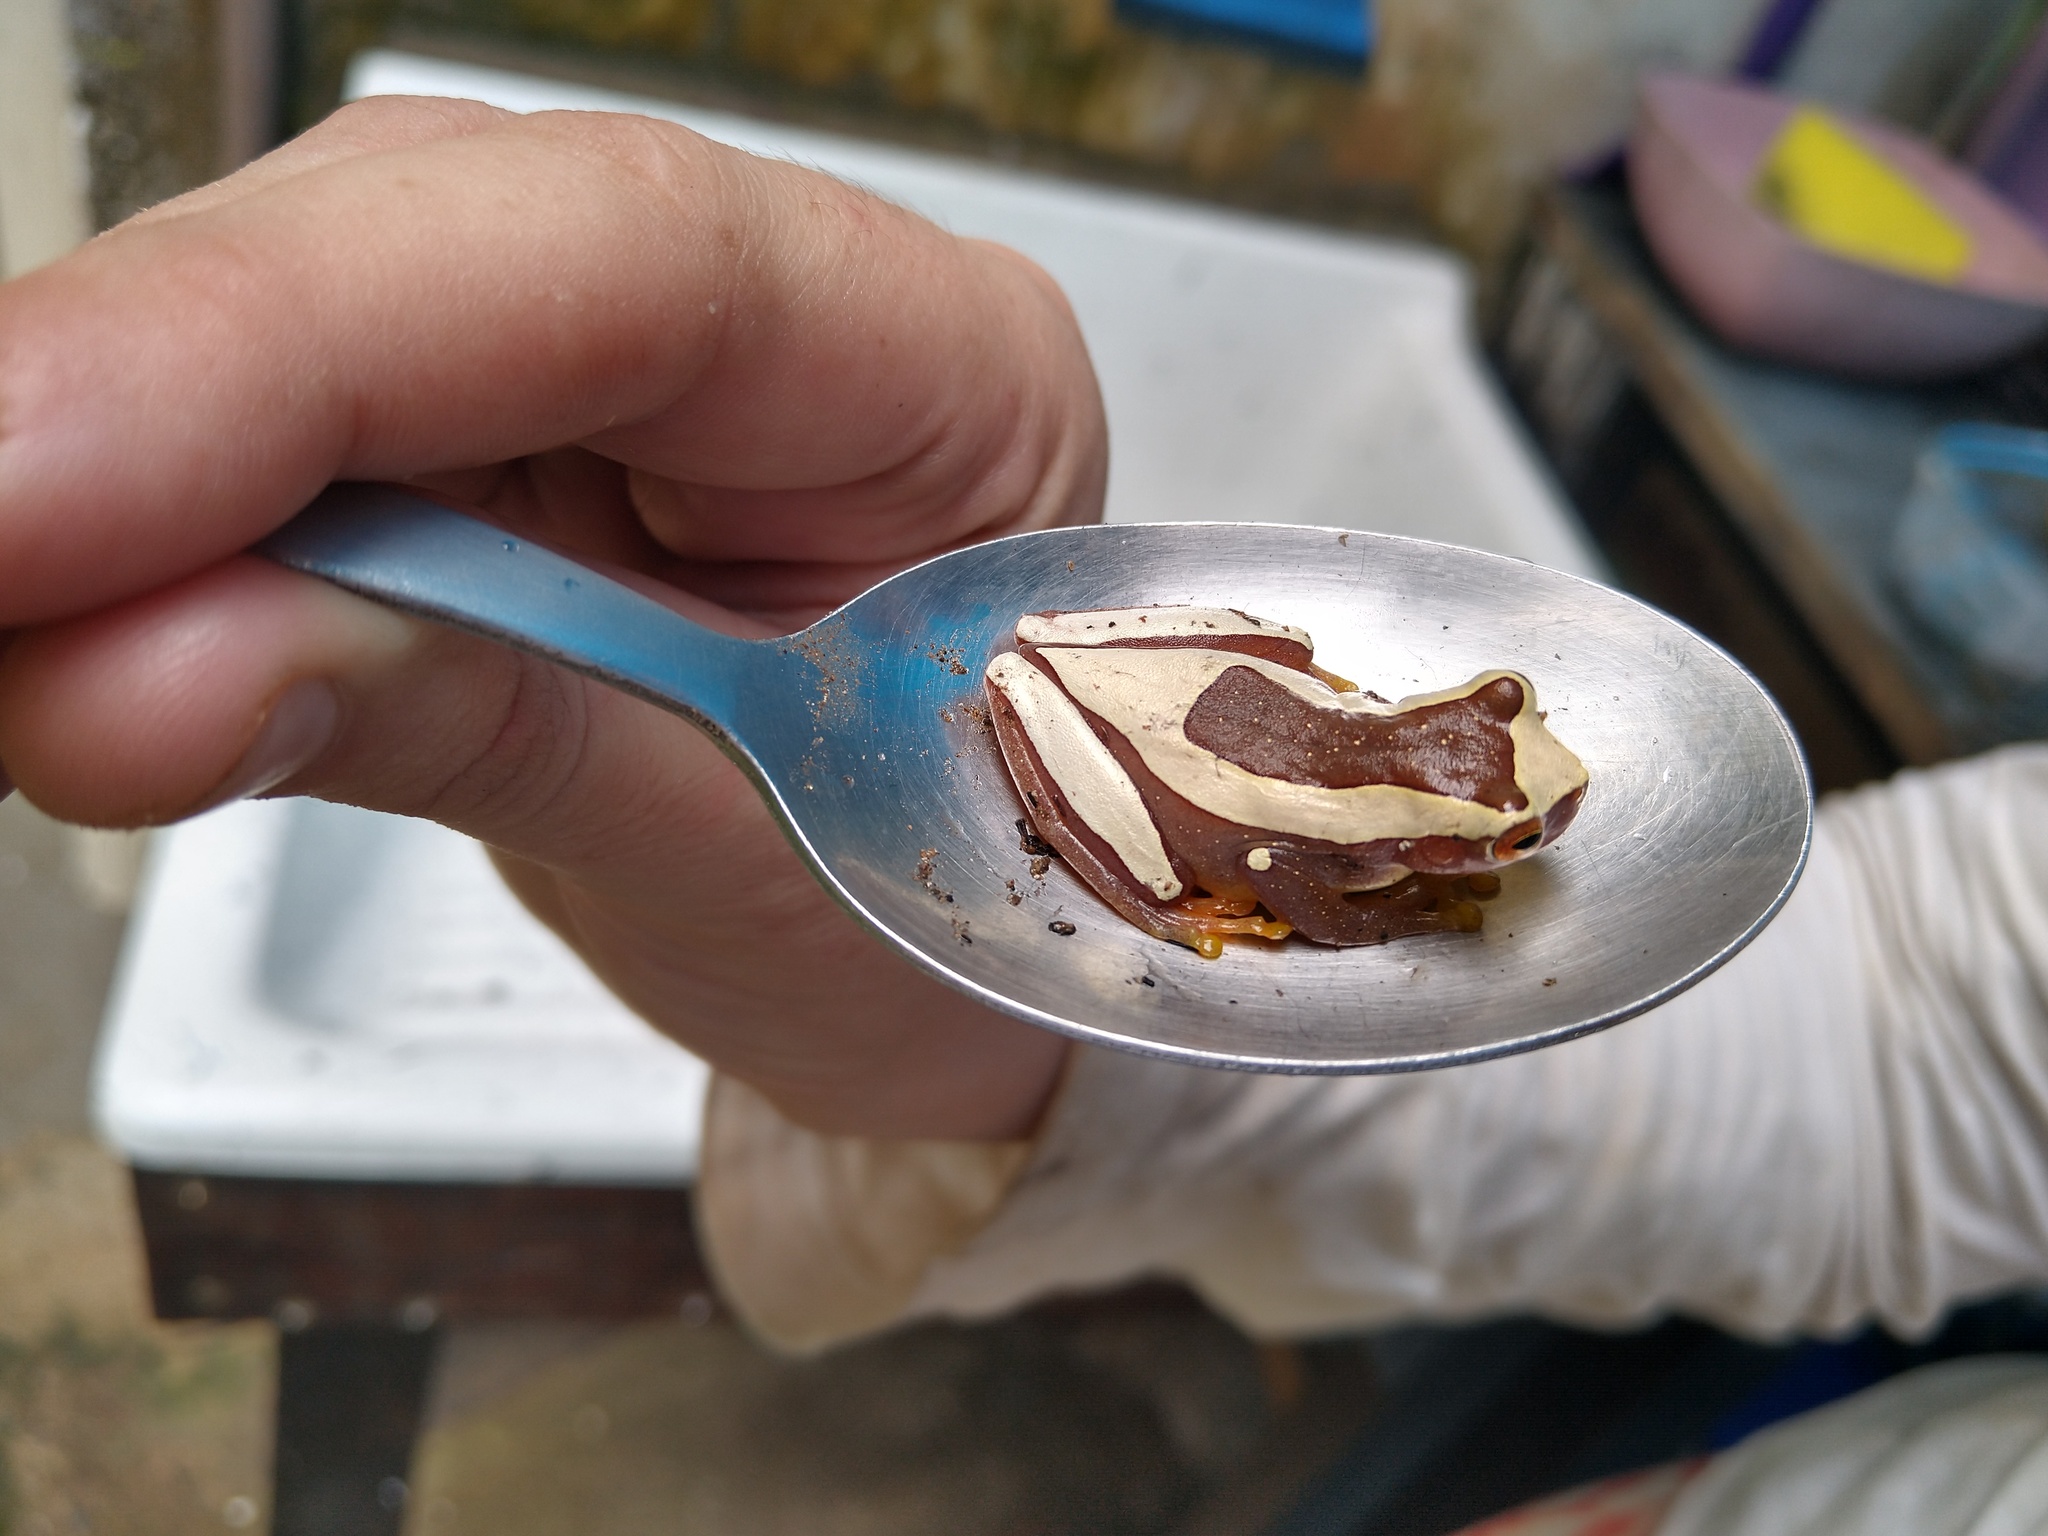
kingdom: Animalia
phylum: Chordata
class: Amphibia
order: Anura
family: Hylidae
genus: Dendropsophus
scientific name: Dendropsophus elegans
